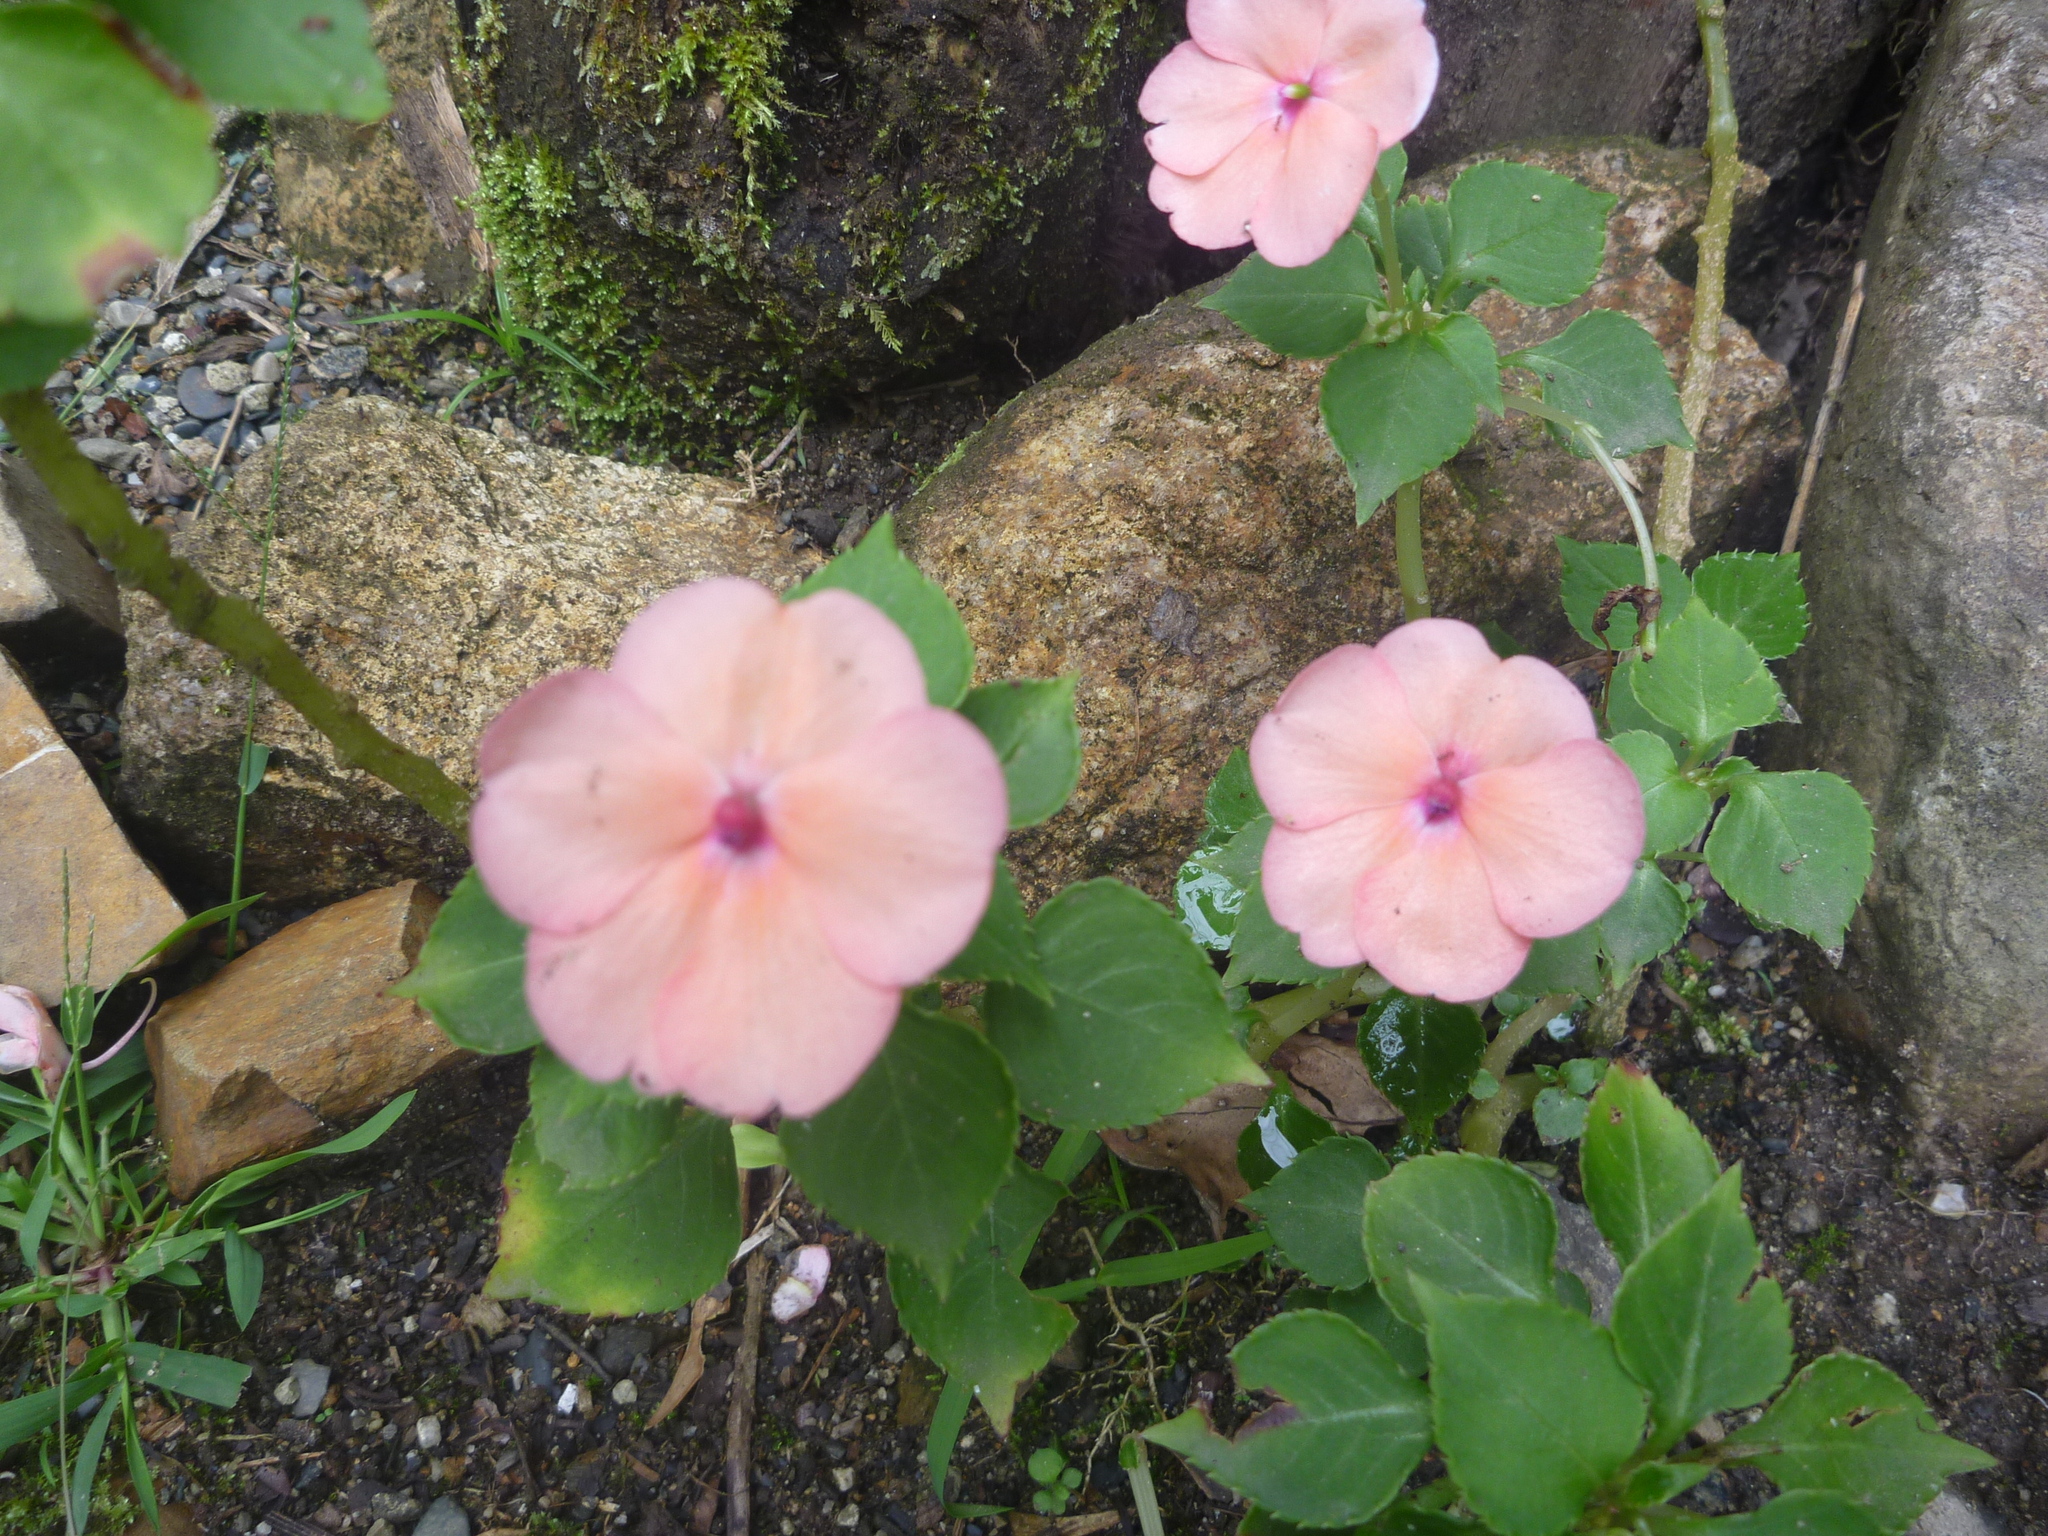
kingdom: Plantae
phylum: Tracheophyta
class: Magnoliopsida
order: Ericales
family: Balsaminaceae
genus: Impatiens
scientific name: Impatiens walleriana
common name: Buzzy lizzy
